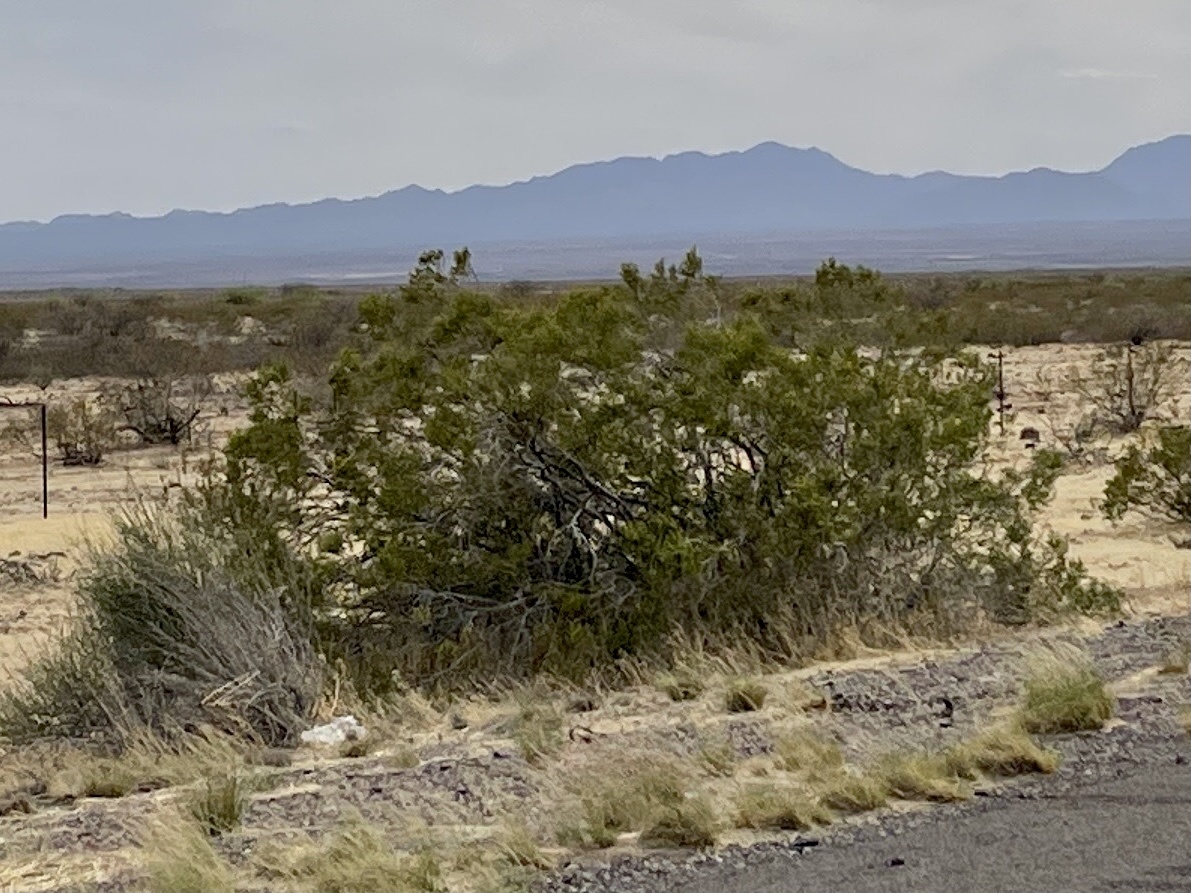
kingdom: Plantae
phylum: Tracheophyta
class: Magnoliopsida
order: Zygophyllales
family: Zygophyllaceae
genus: Larrea
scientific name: Larrea tridentata
